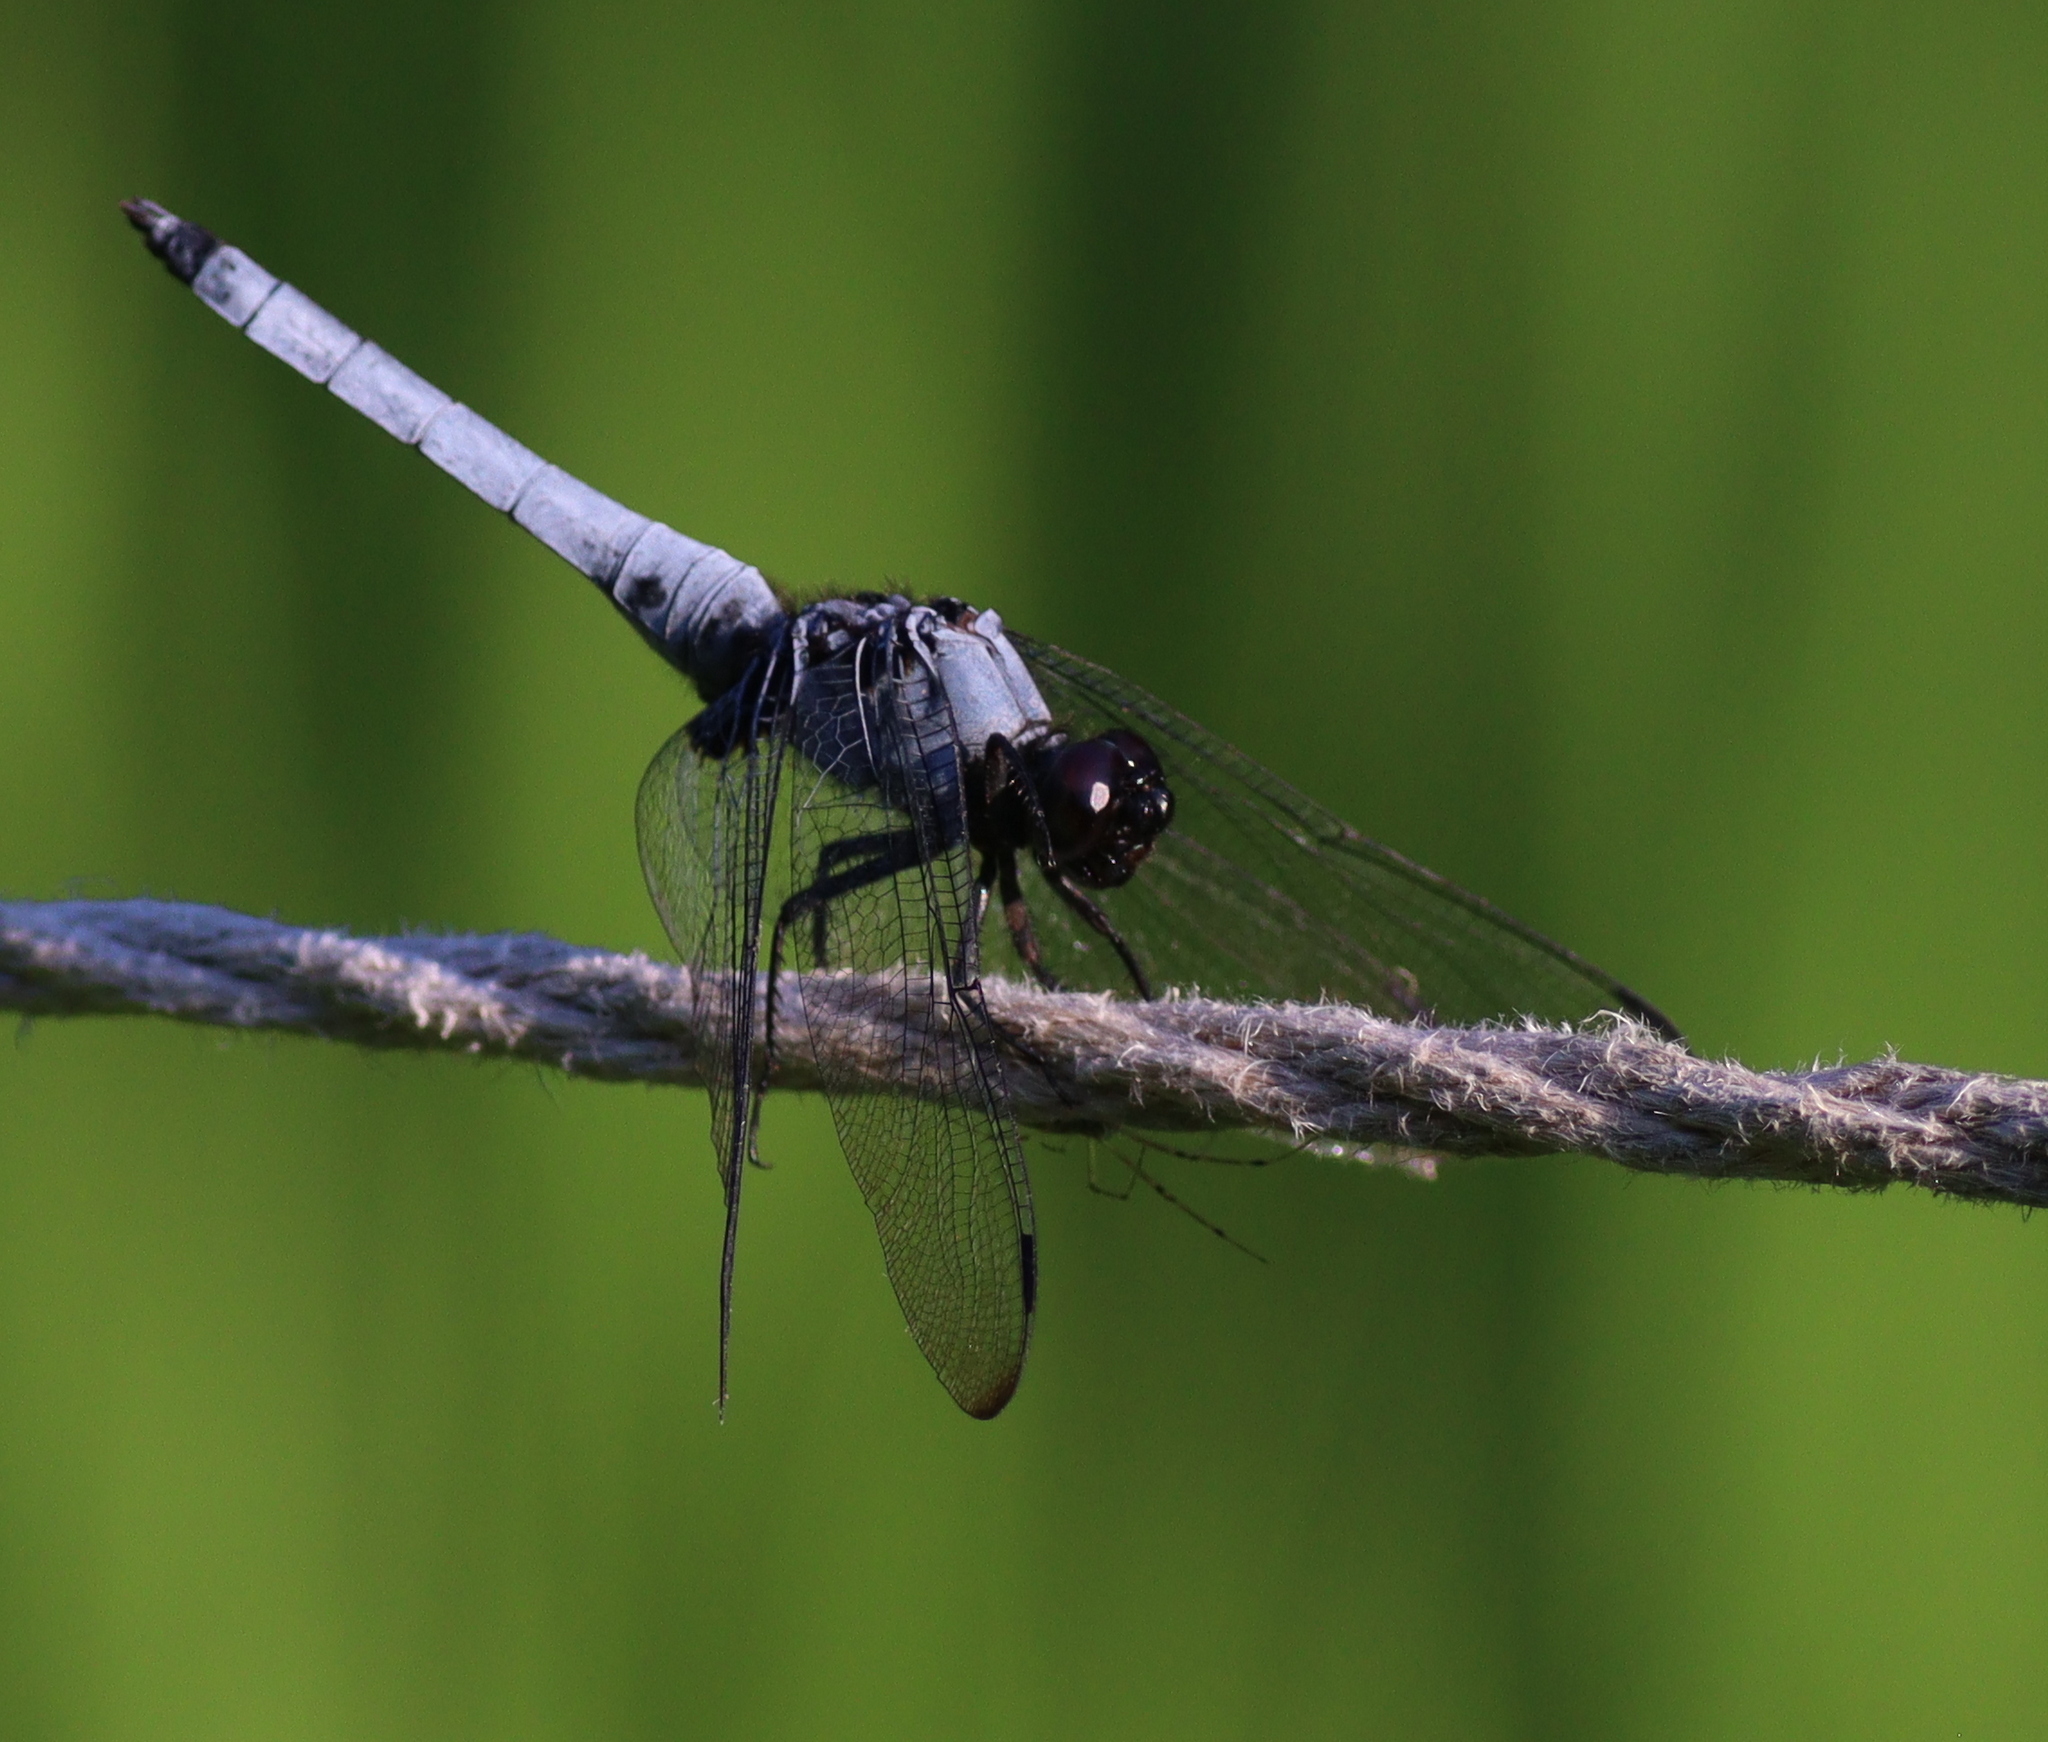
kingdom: Animalia
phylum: Arthropoda
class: Insecta
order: Odonata
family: Libellulidae
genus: Orthetrum
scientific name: Orthetrum melania
